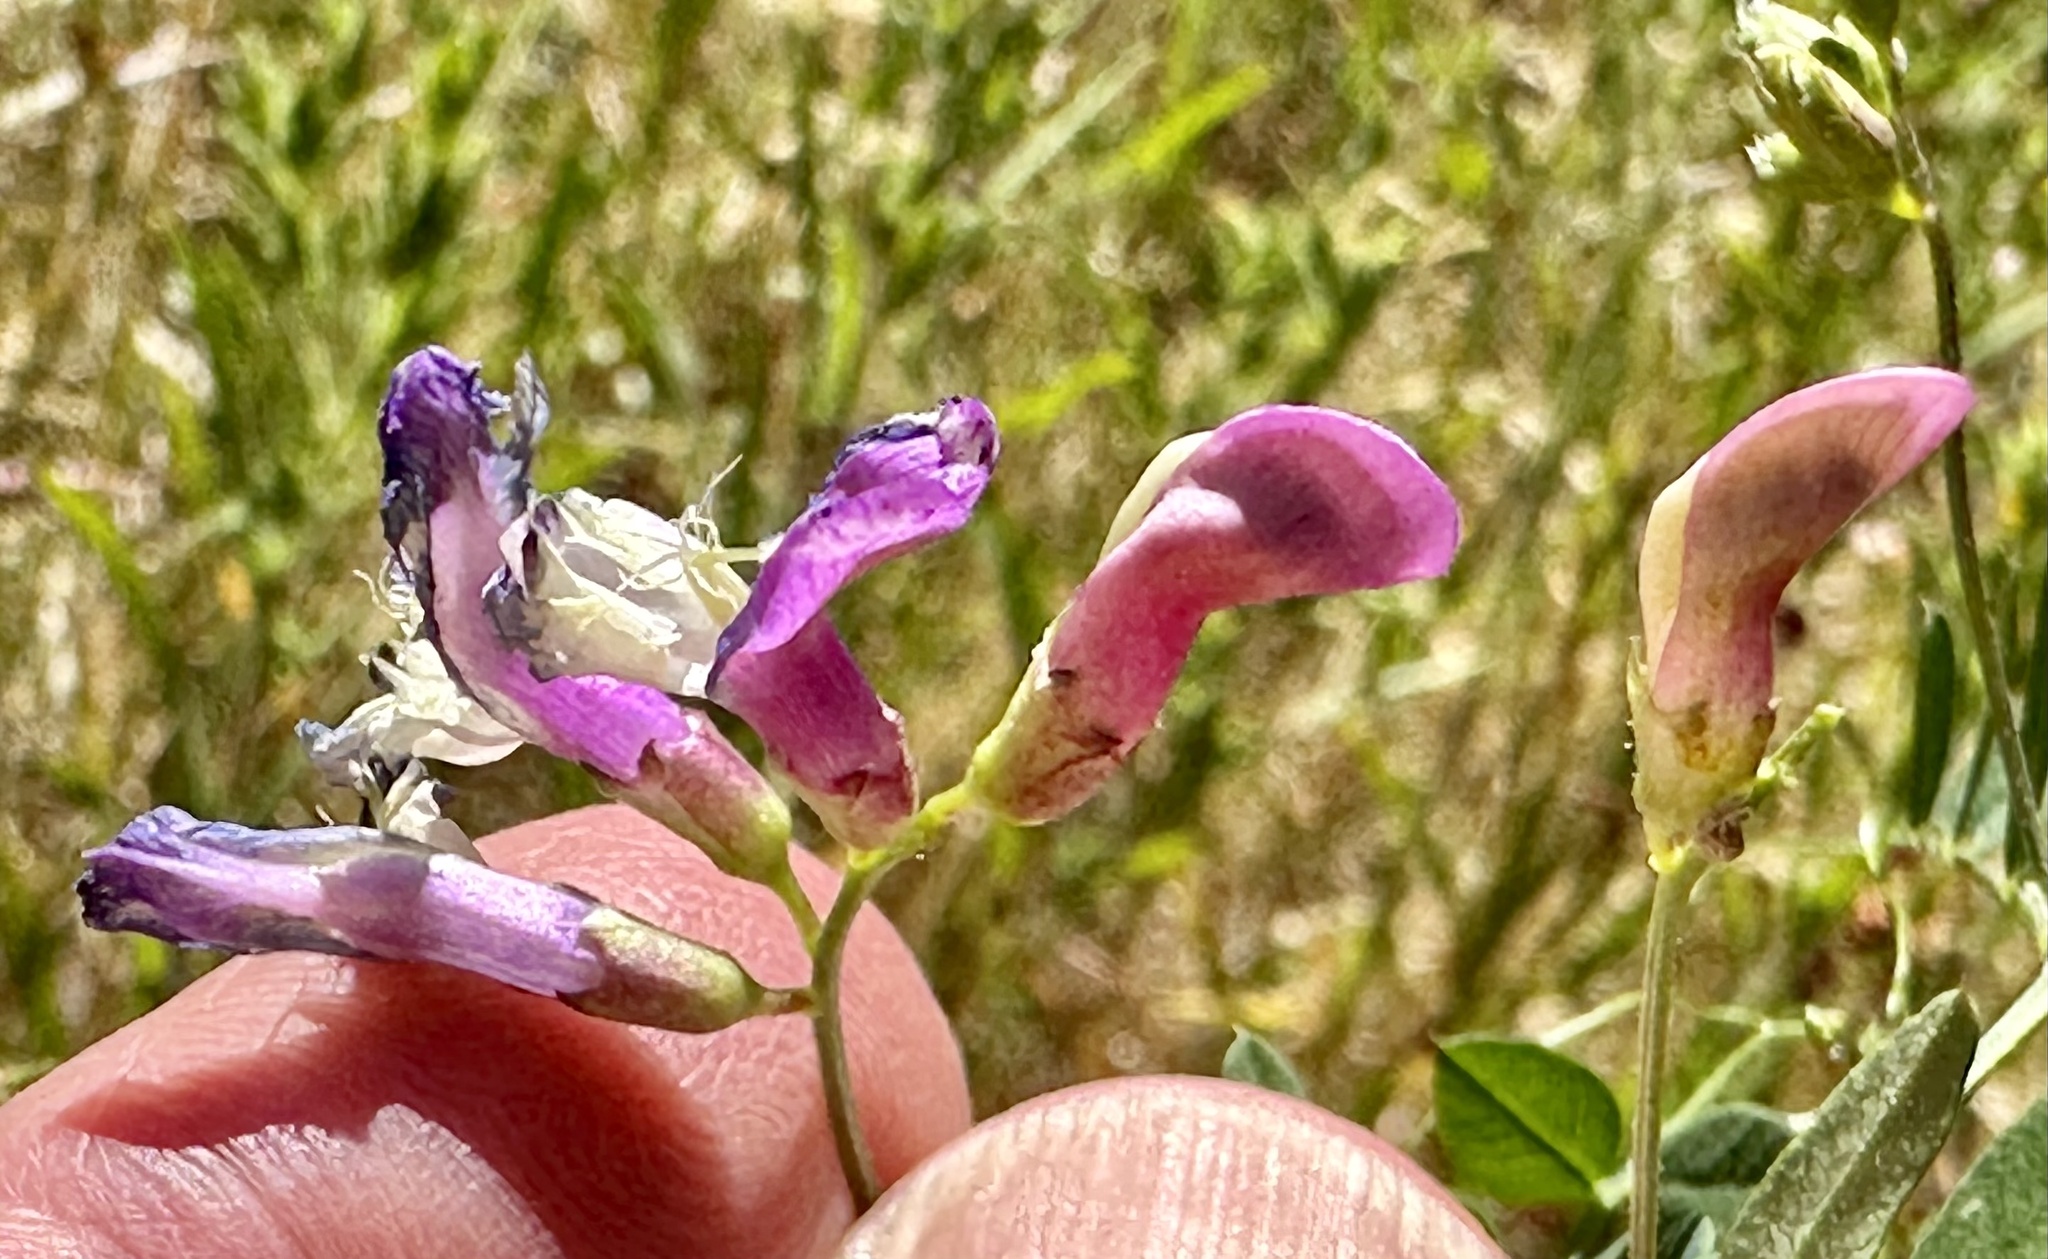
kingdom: Plantae
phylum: Tracheophyta
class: Magnoliopsida
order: Fabales
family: Fabaceae
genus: Vicia
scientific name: Vicia americana
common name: American vetch
